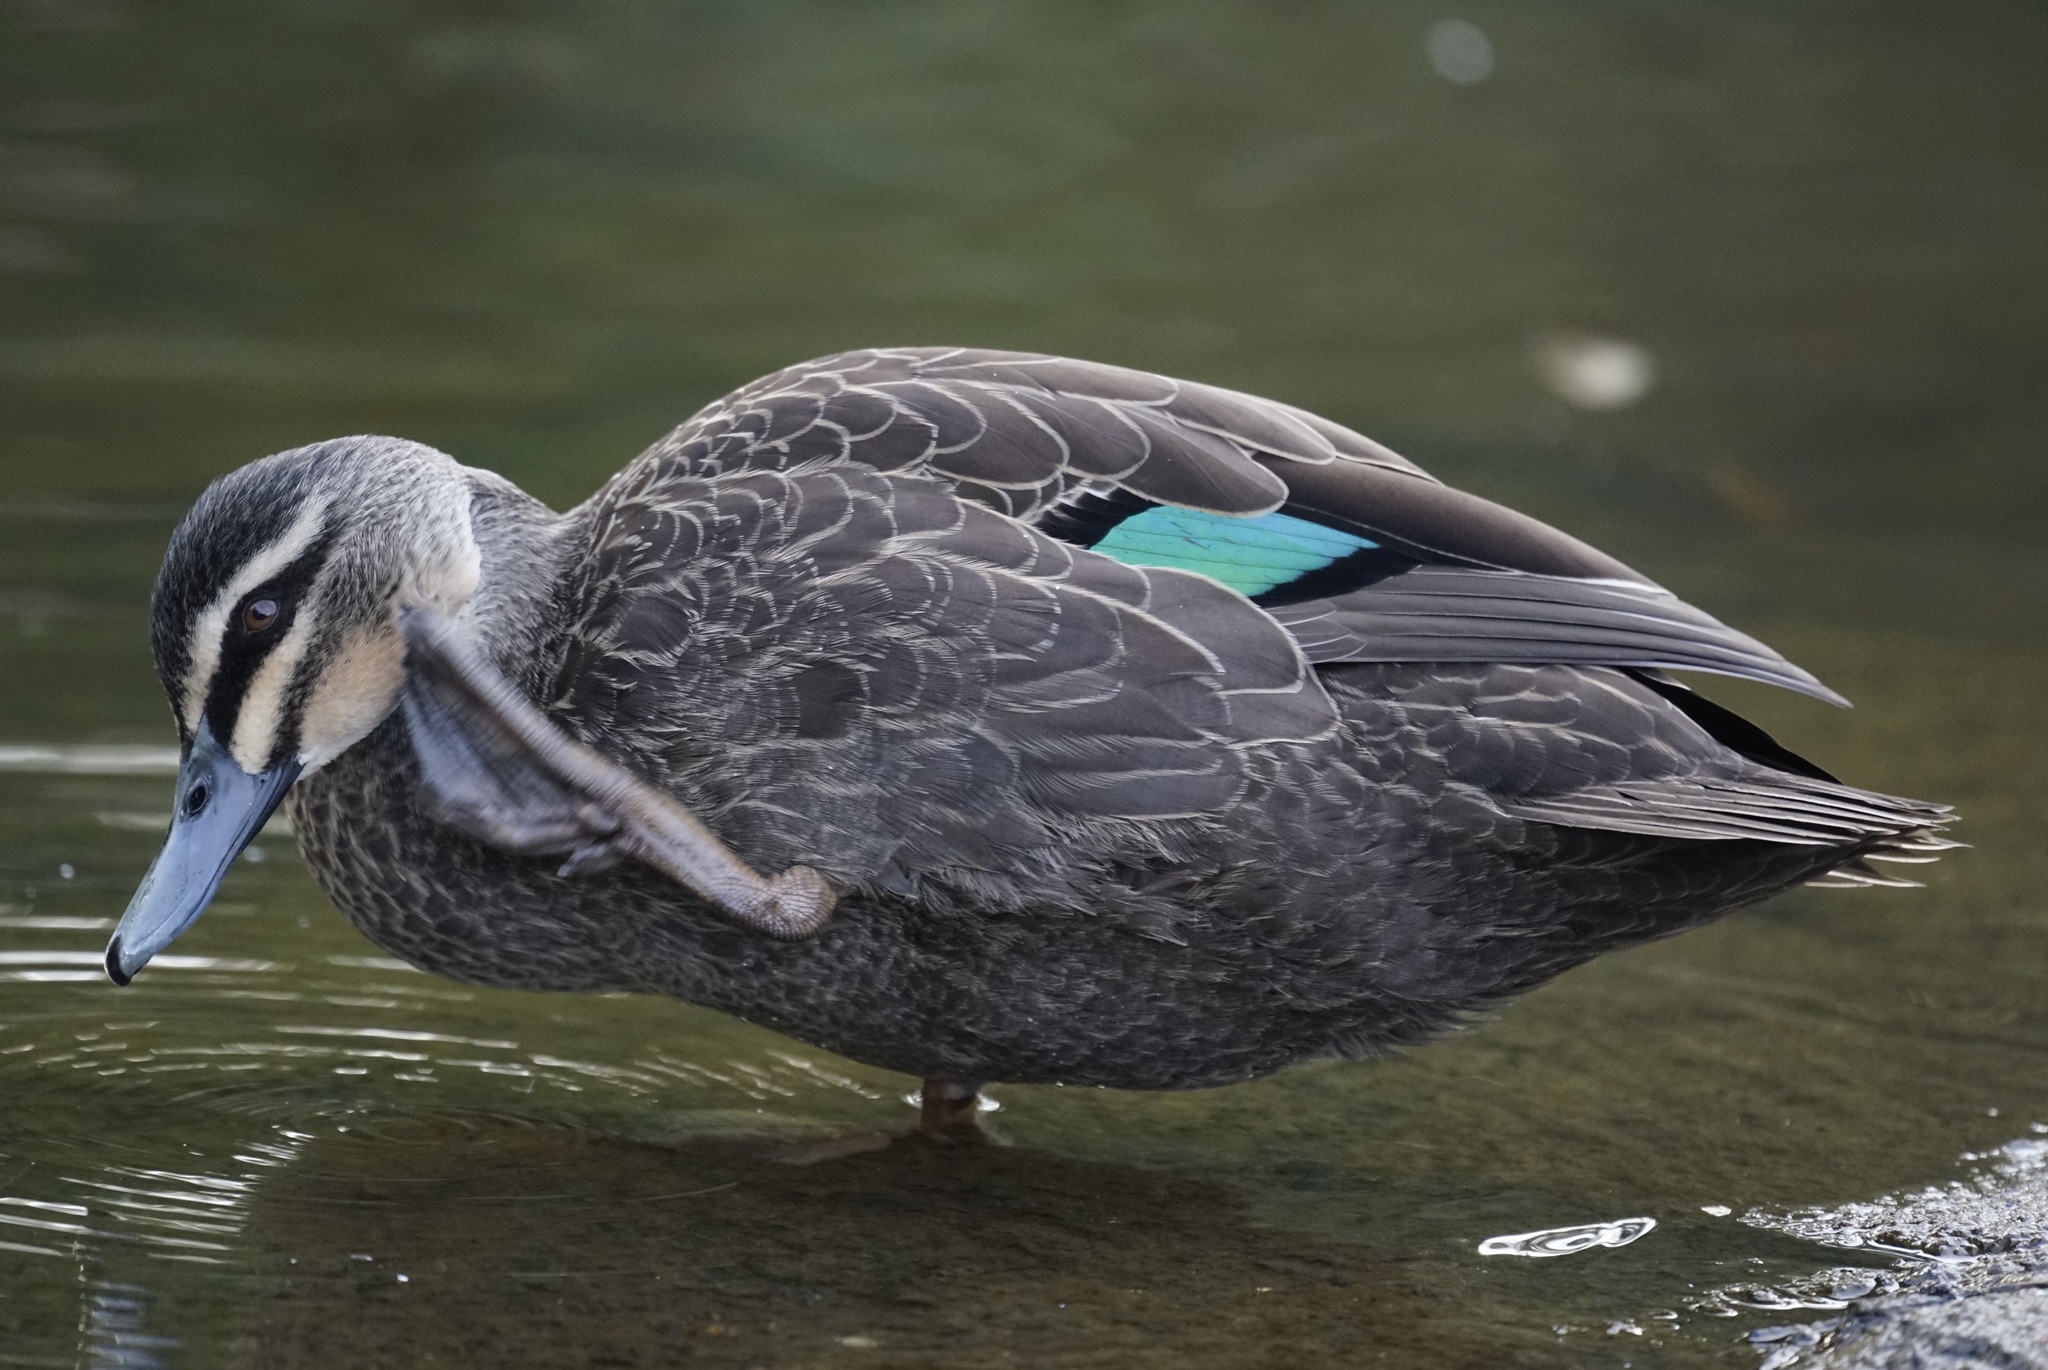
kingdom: Animalia
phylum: Chordata
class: Aves
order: Anseriformes
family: Anatidae
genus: Anas
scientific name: Anas superciliosa
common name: Pacific black duck
